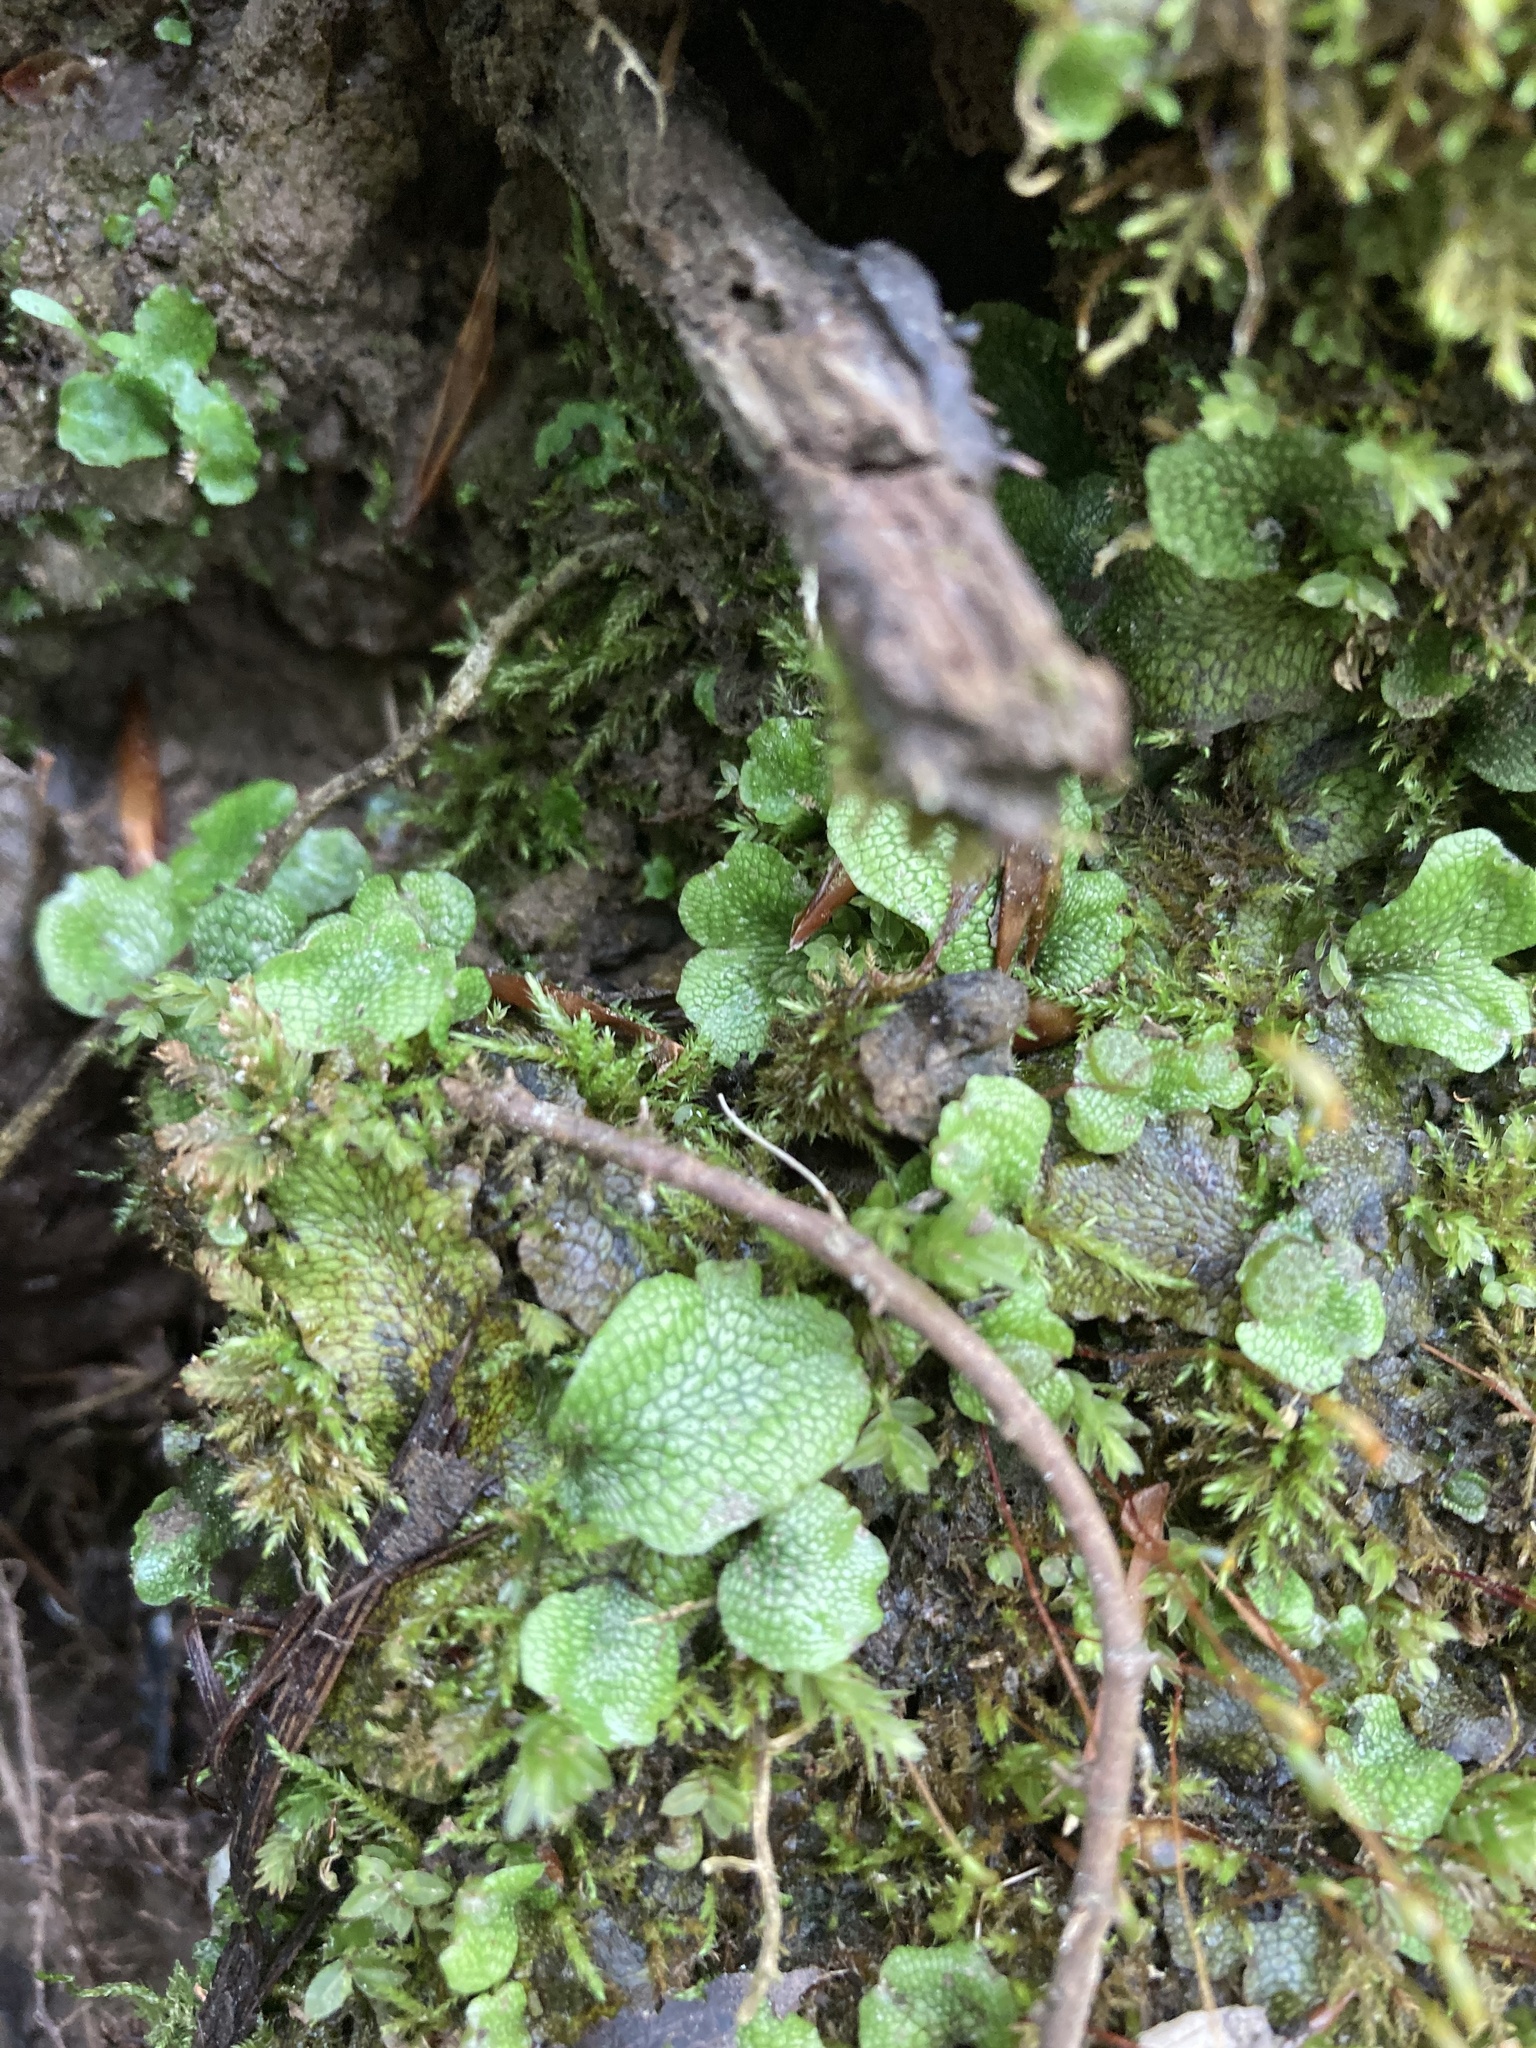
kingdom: Plantae
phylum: Marchantiophyta
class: Marchantiopsida
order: Marchantiales
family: Conocephalaceae
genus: Conocephalum
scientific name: Conocephalum salebrosum
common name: Cat-tongue liverwort
